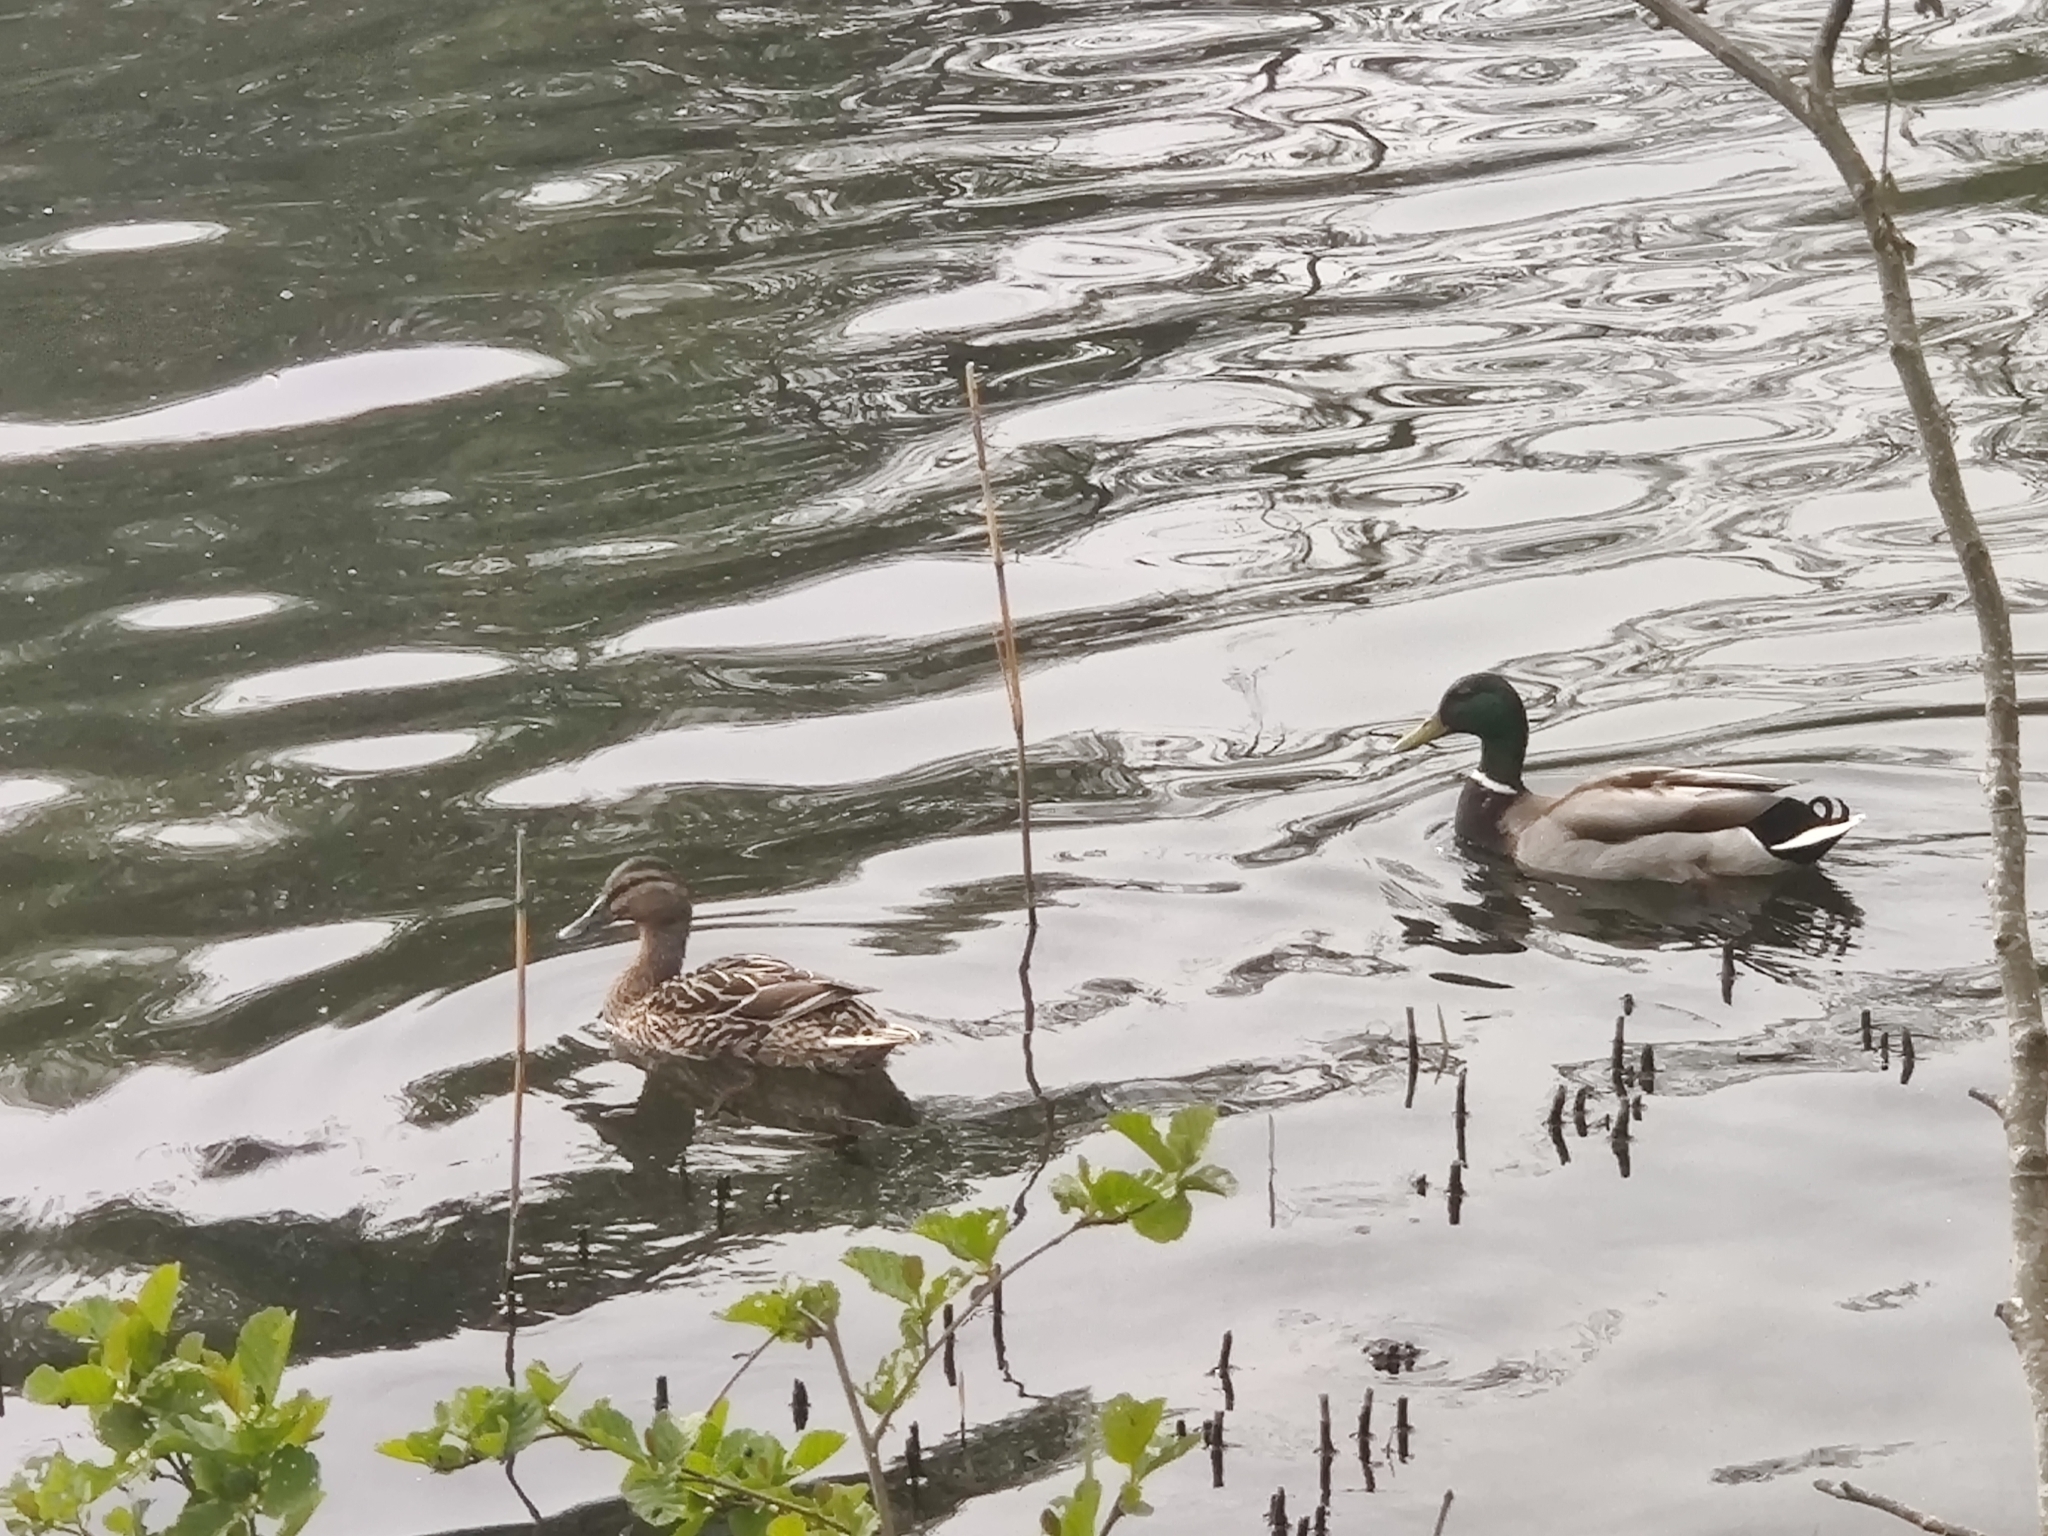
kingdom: Animalia
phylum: Chordata
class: Aves
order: Anseriformes
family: Anatidae
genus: Anas
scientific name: Anas platyrhynchos
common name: Mallard
